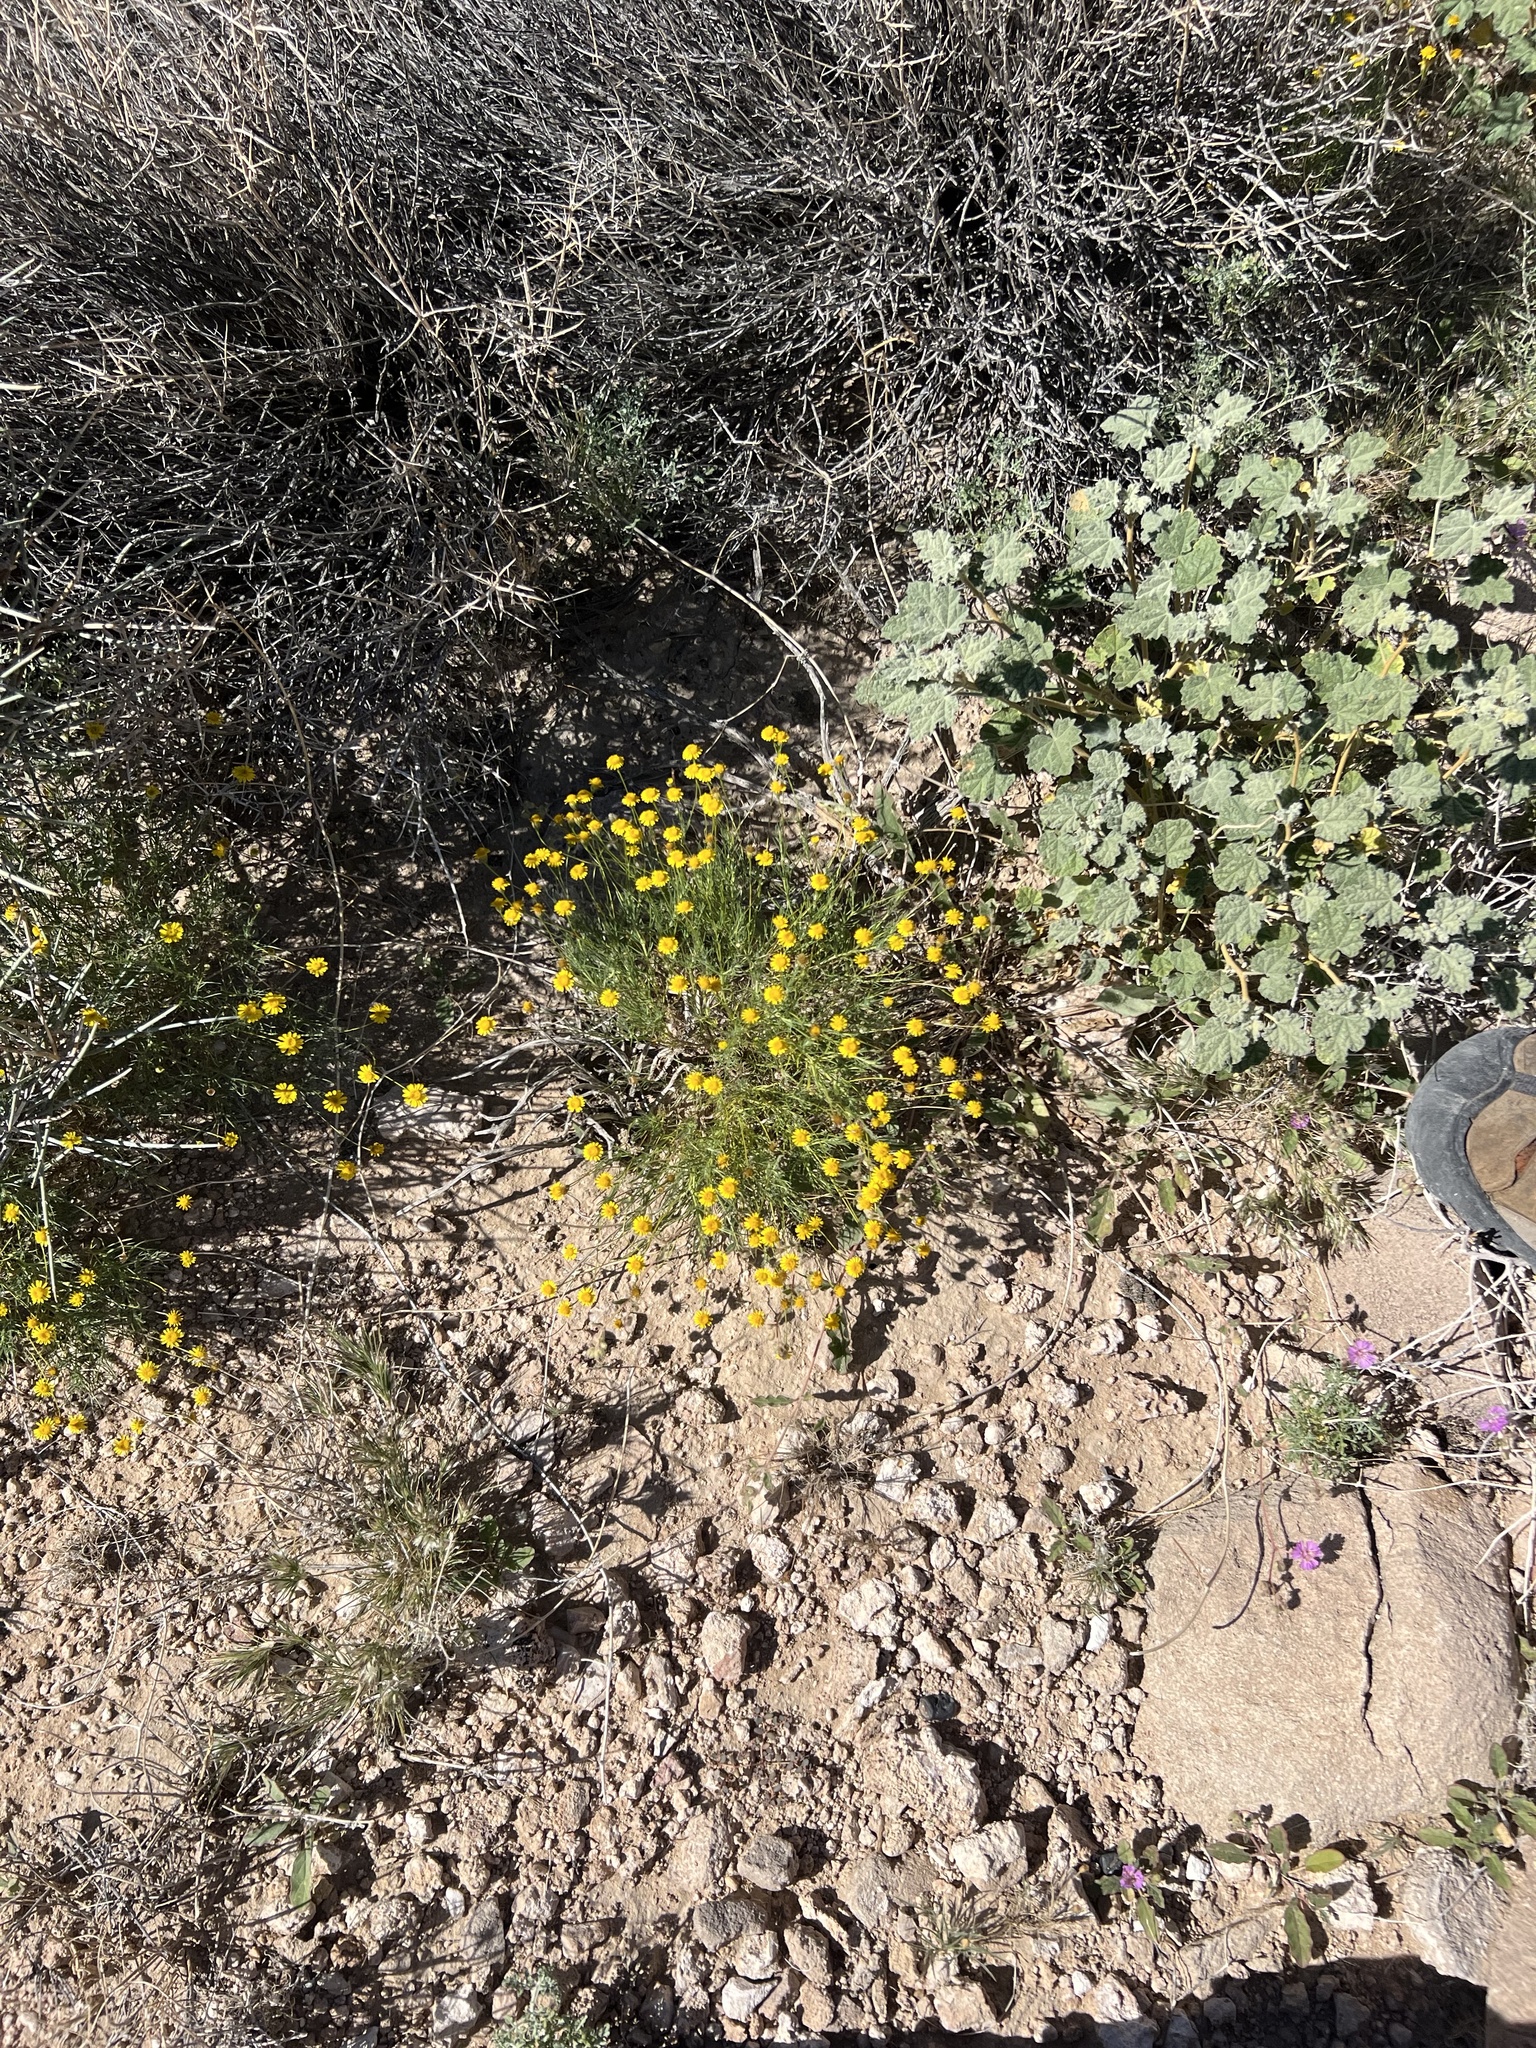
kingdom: Plantae
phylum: Tracheophyta
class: Magnoliopsida
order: Asterales
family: Asteraceae
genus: Thymophylla
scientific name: Thymophylla pentachaeta
